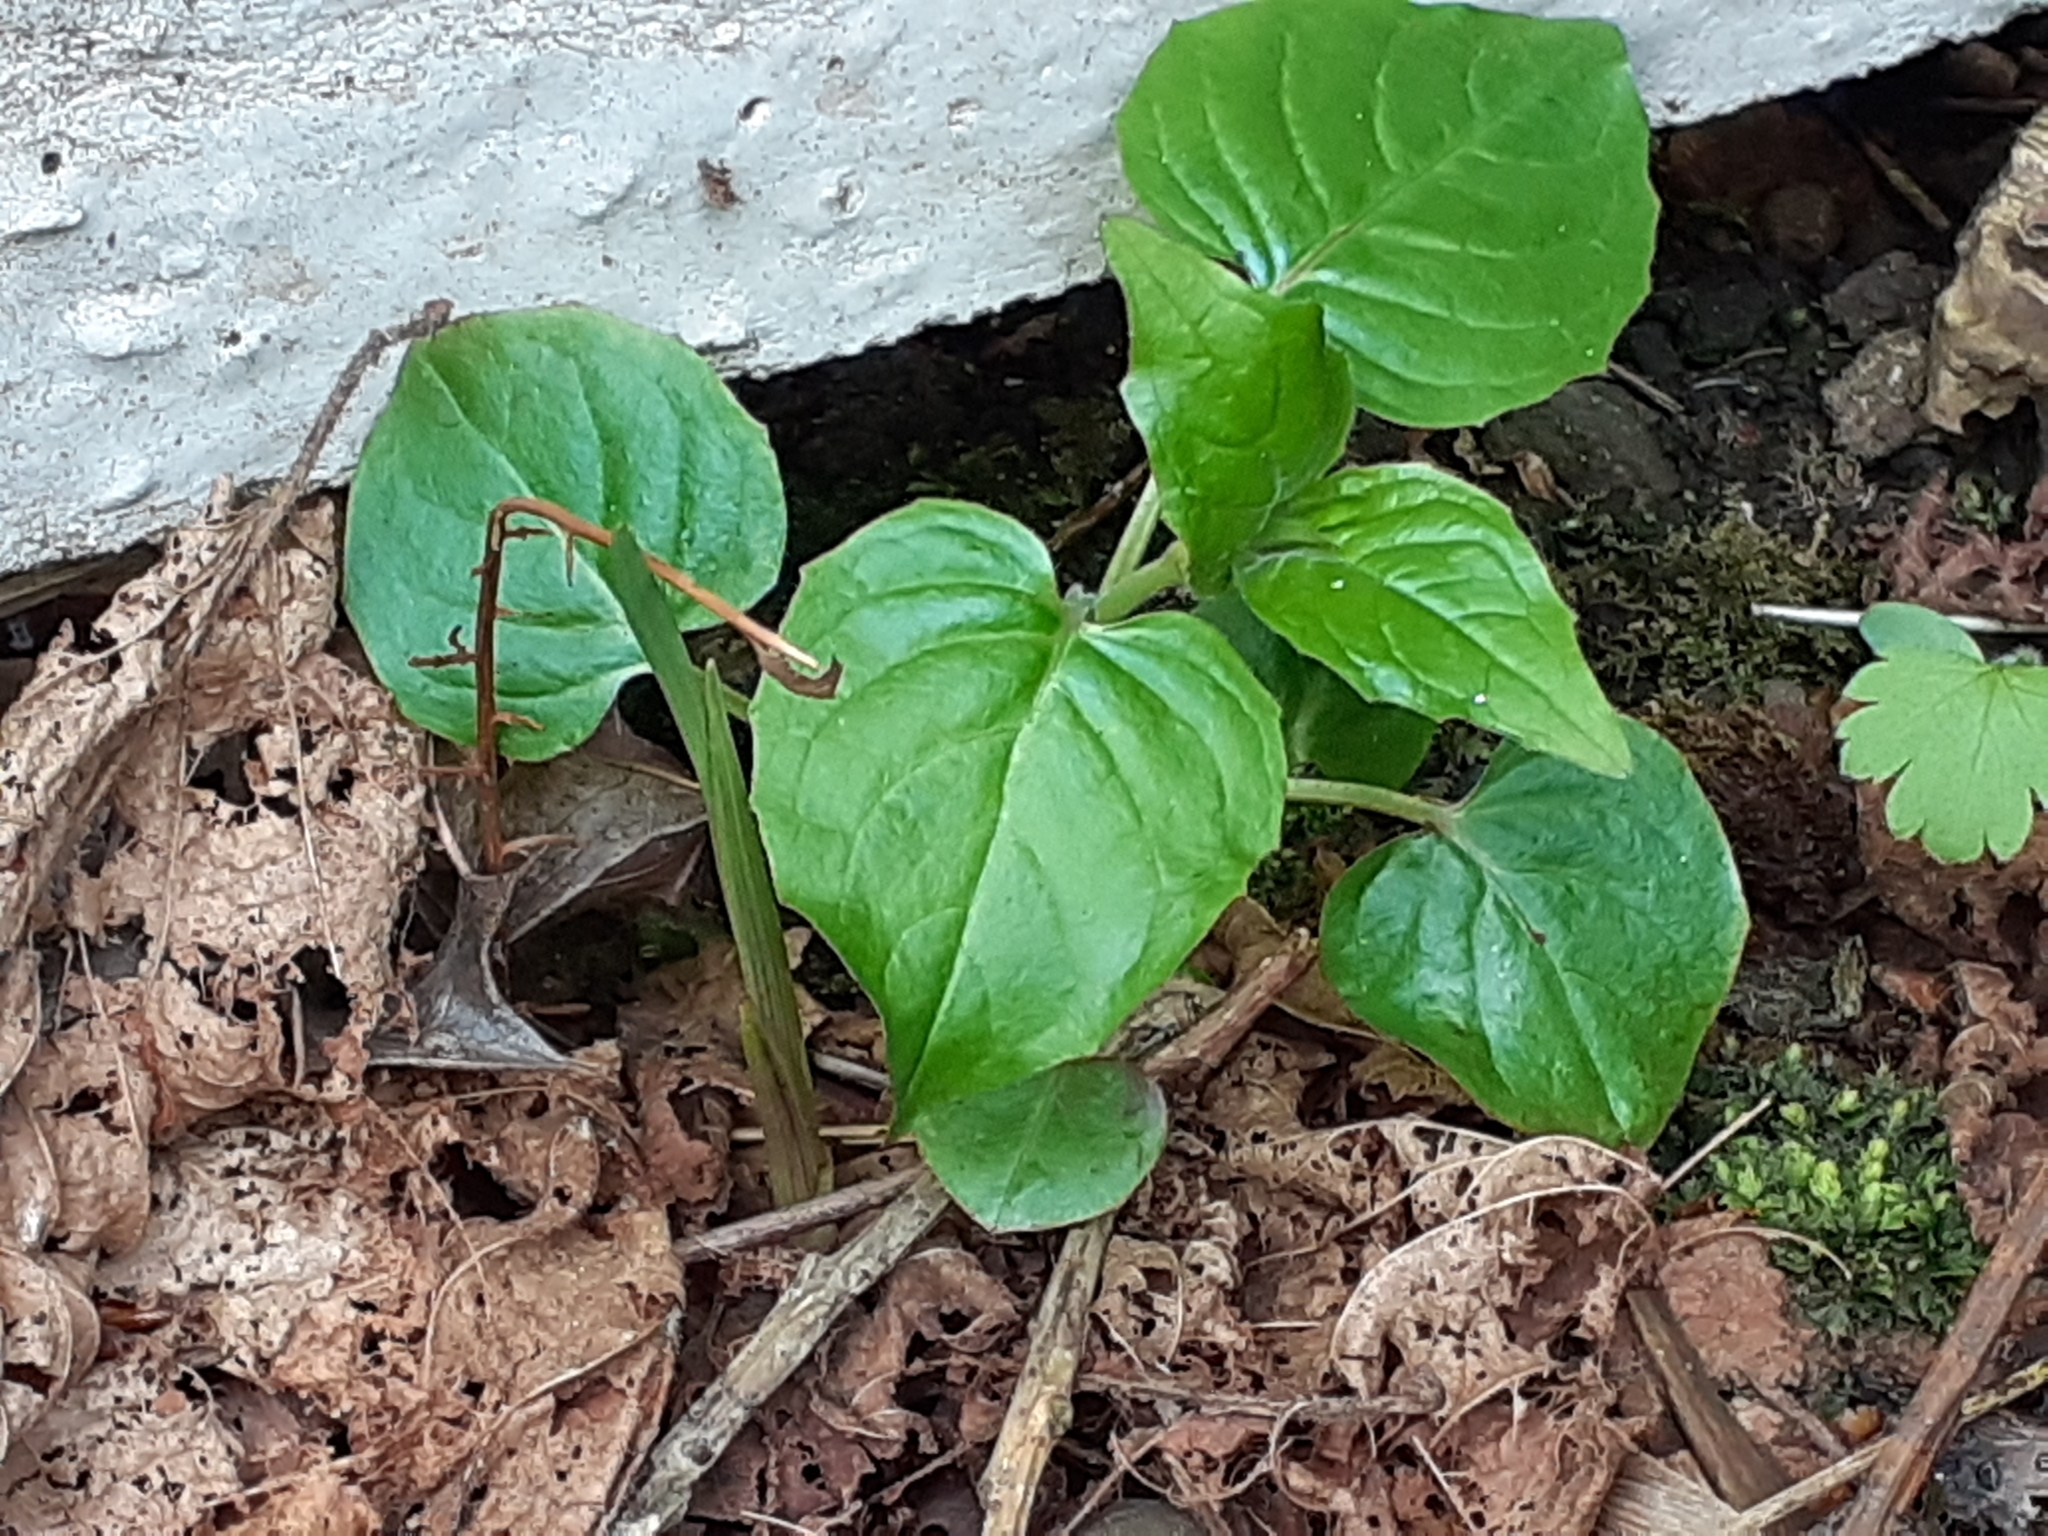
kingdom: Plantae
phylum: Tracheophyta
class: Magnoliopsida
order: Myrtales
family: Onagraceae
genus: Circaea
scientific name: Circaea lutetiana
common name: Enchanter's-nightshade
